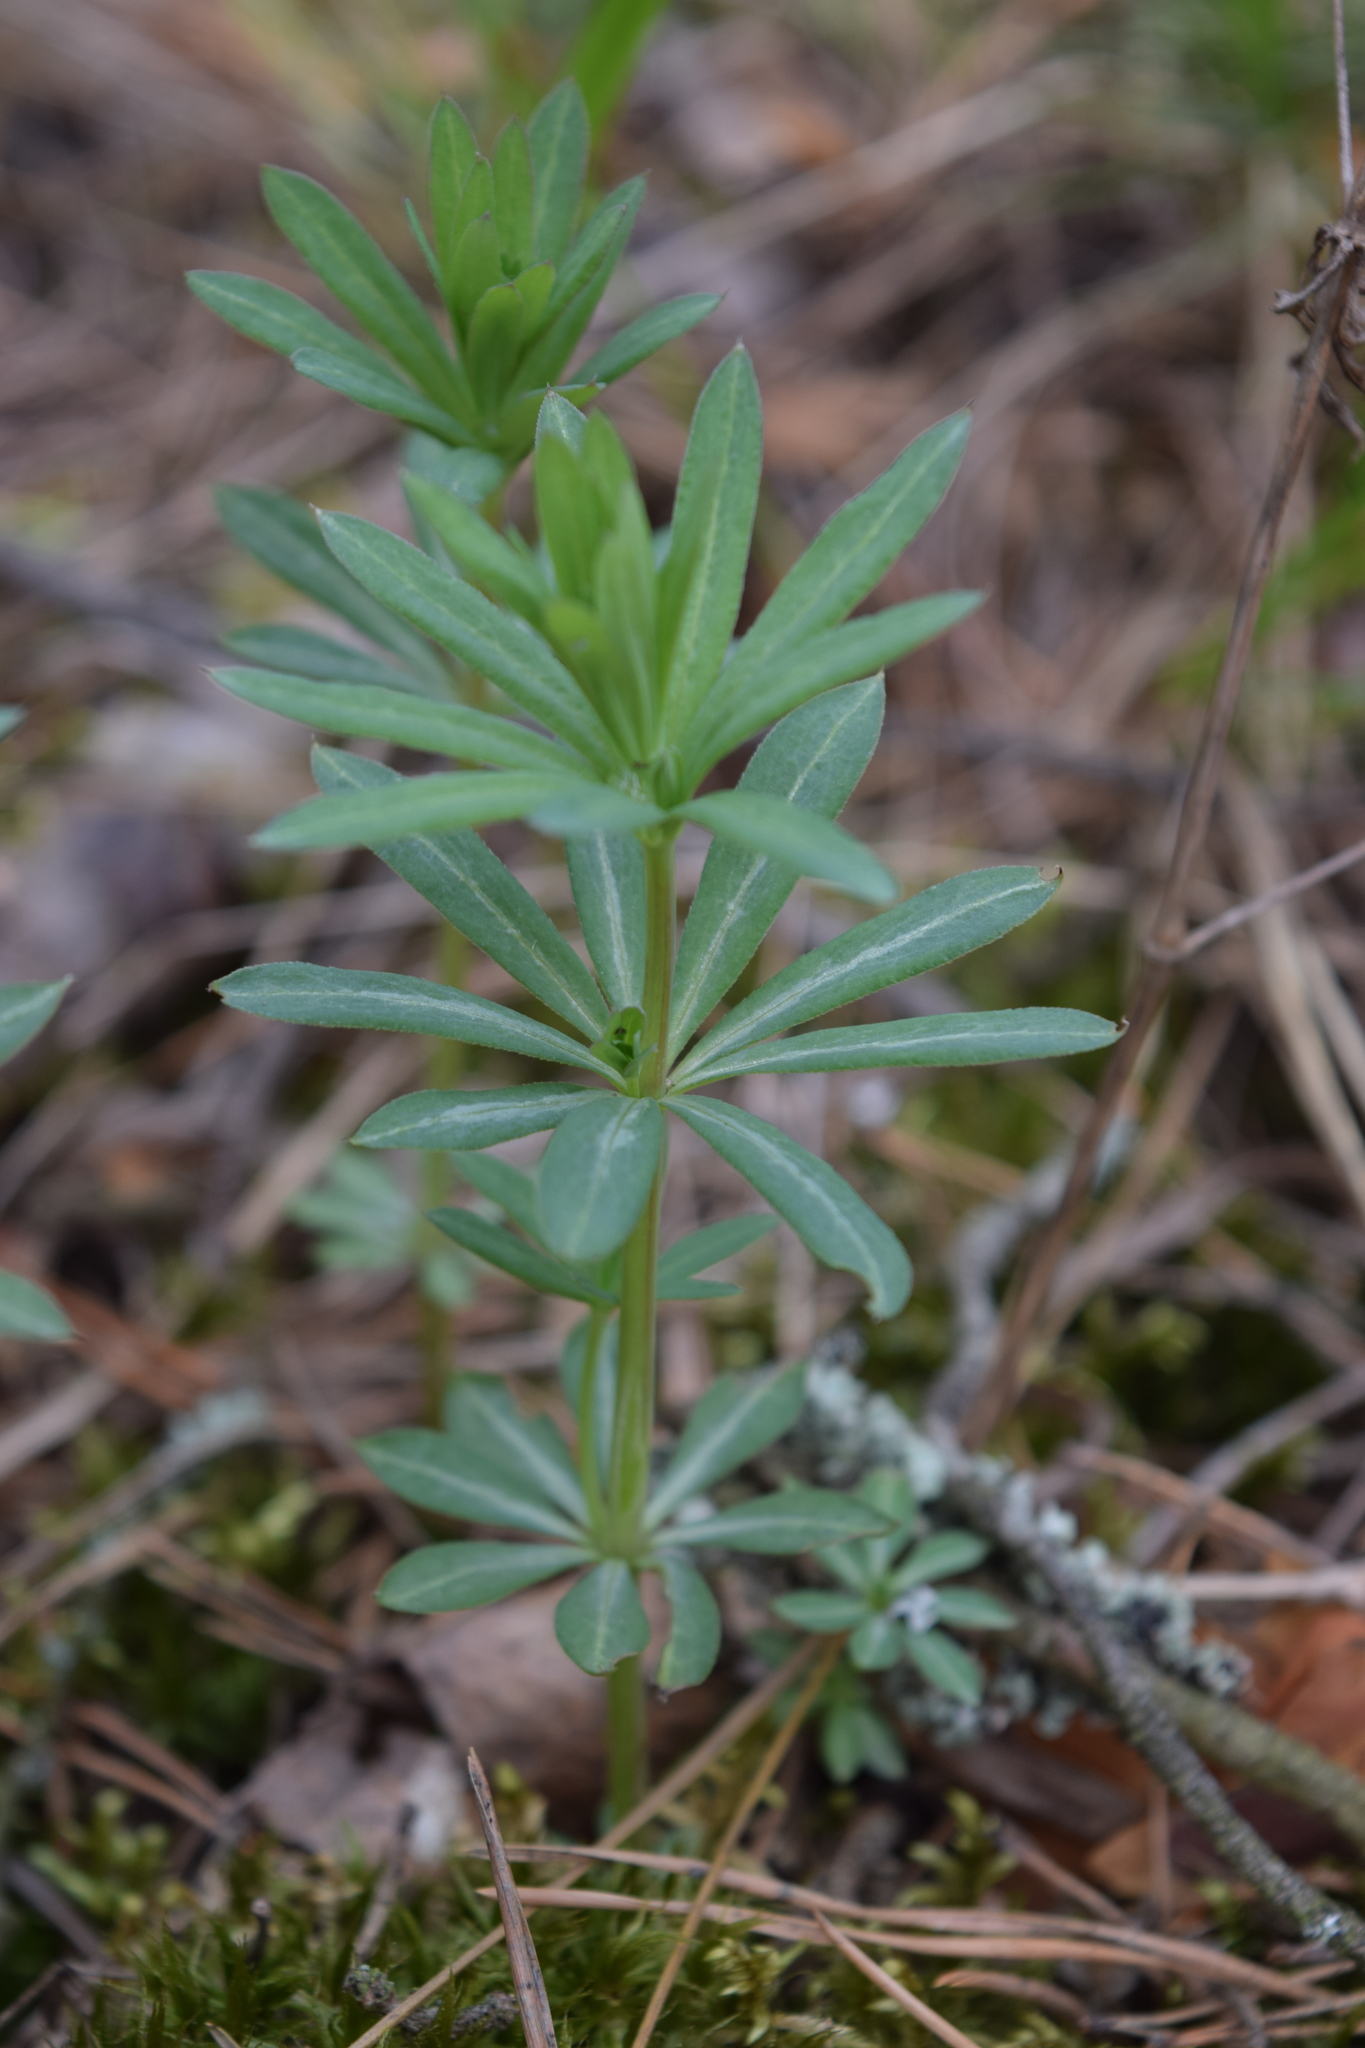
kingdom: Plantae
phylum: Tracheophyta
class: Magnoliopsida
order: Gentianales
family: Rubiaceae
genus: Galium
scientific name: Galium intermedium
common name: Bedstraw
